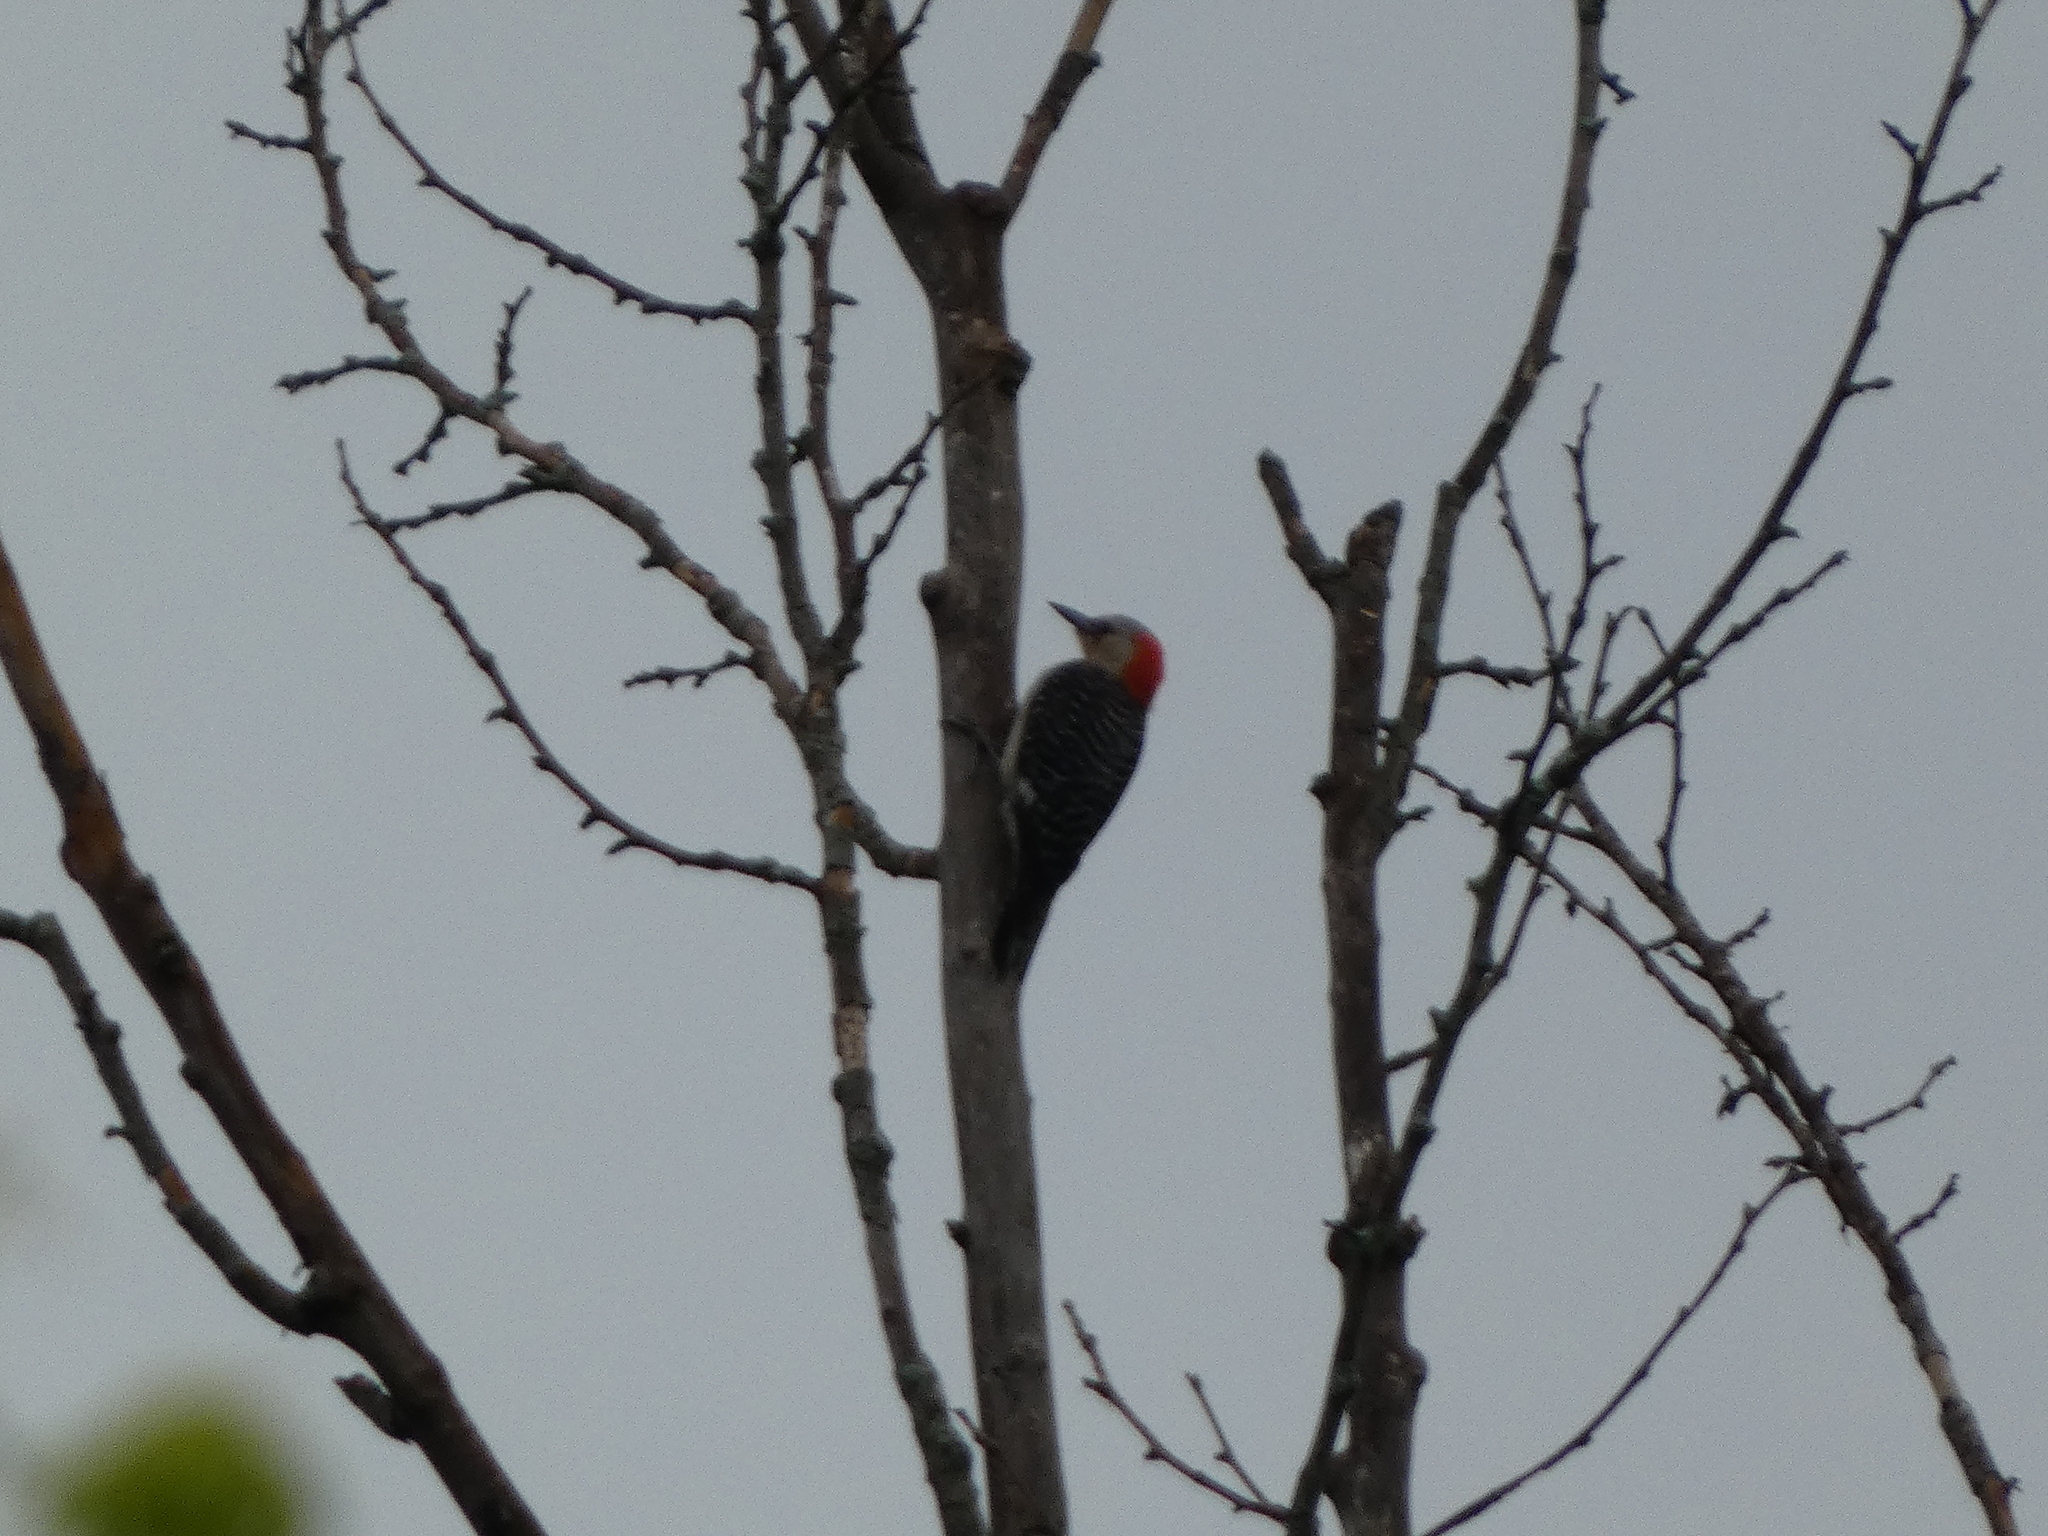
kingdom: Animalia
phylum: Chordata
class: Aves
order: Piciformes
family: Picidae
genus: Melanerpes
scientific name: Melanerpes carolinus
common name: Red-bellied woodpecker
